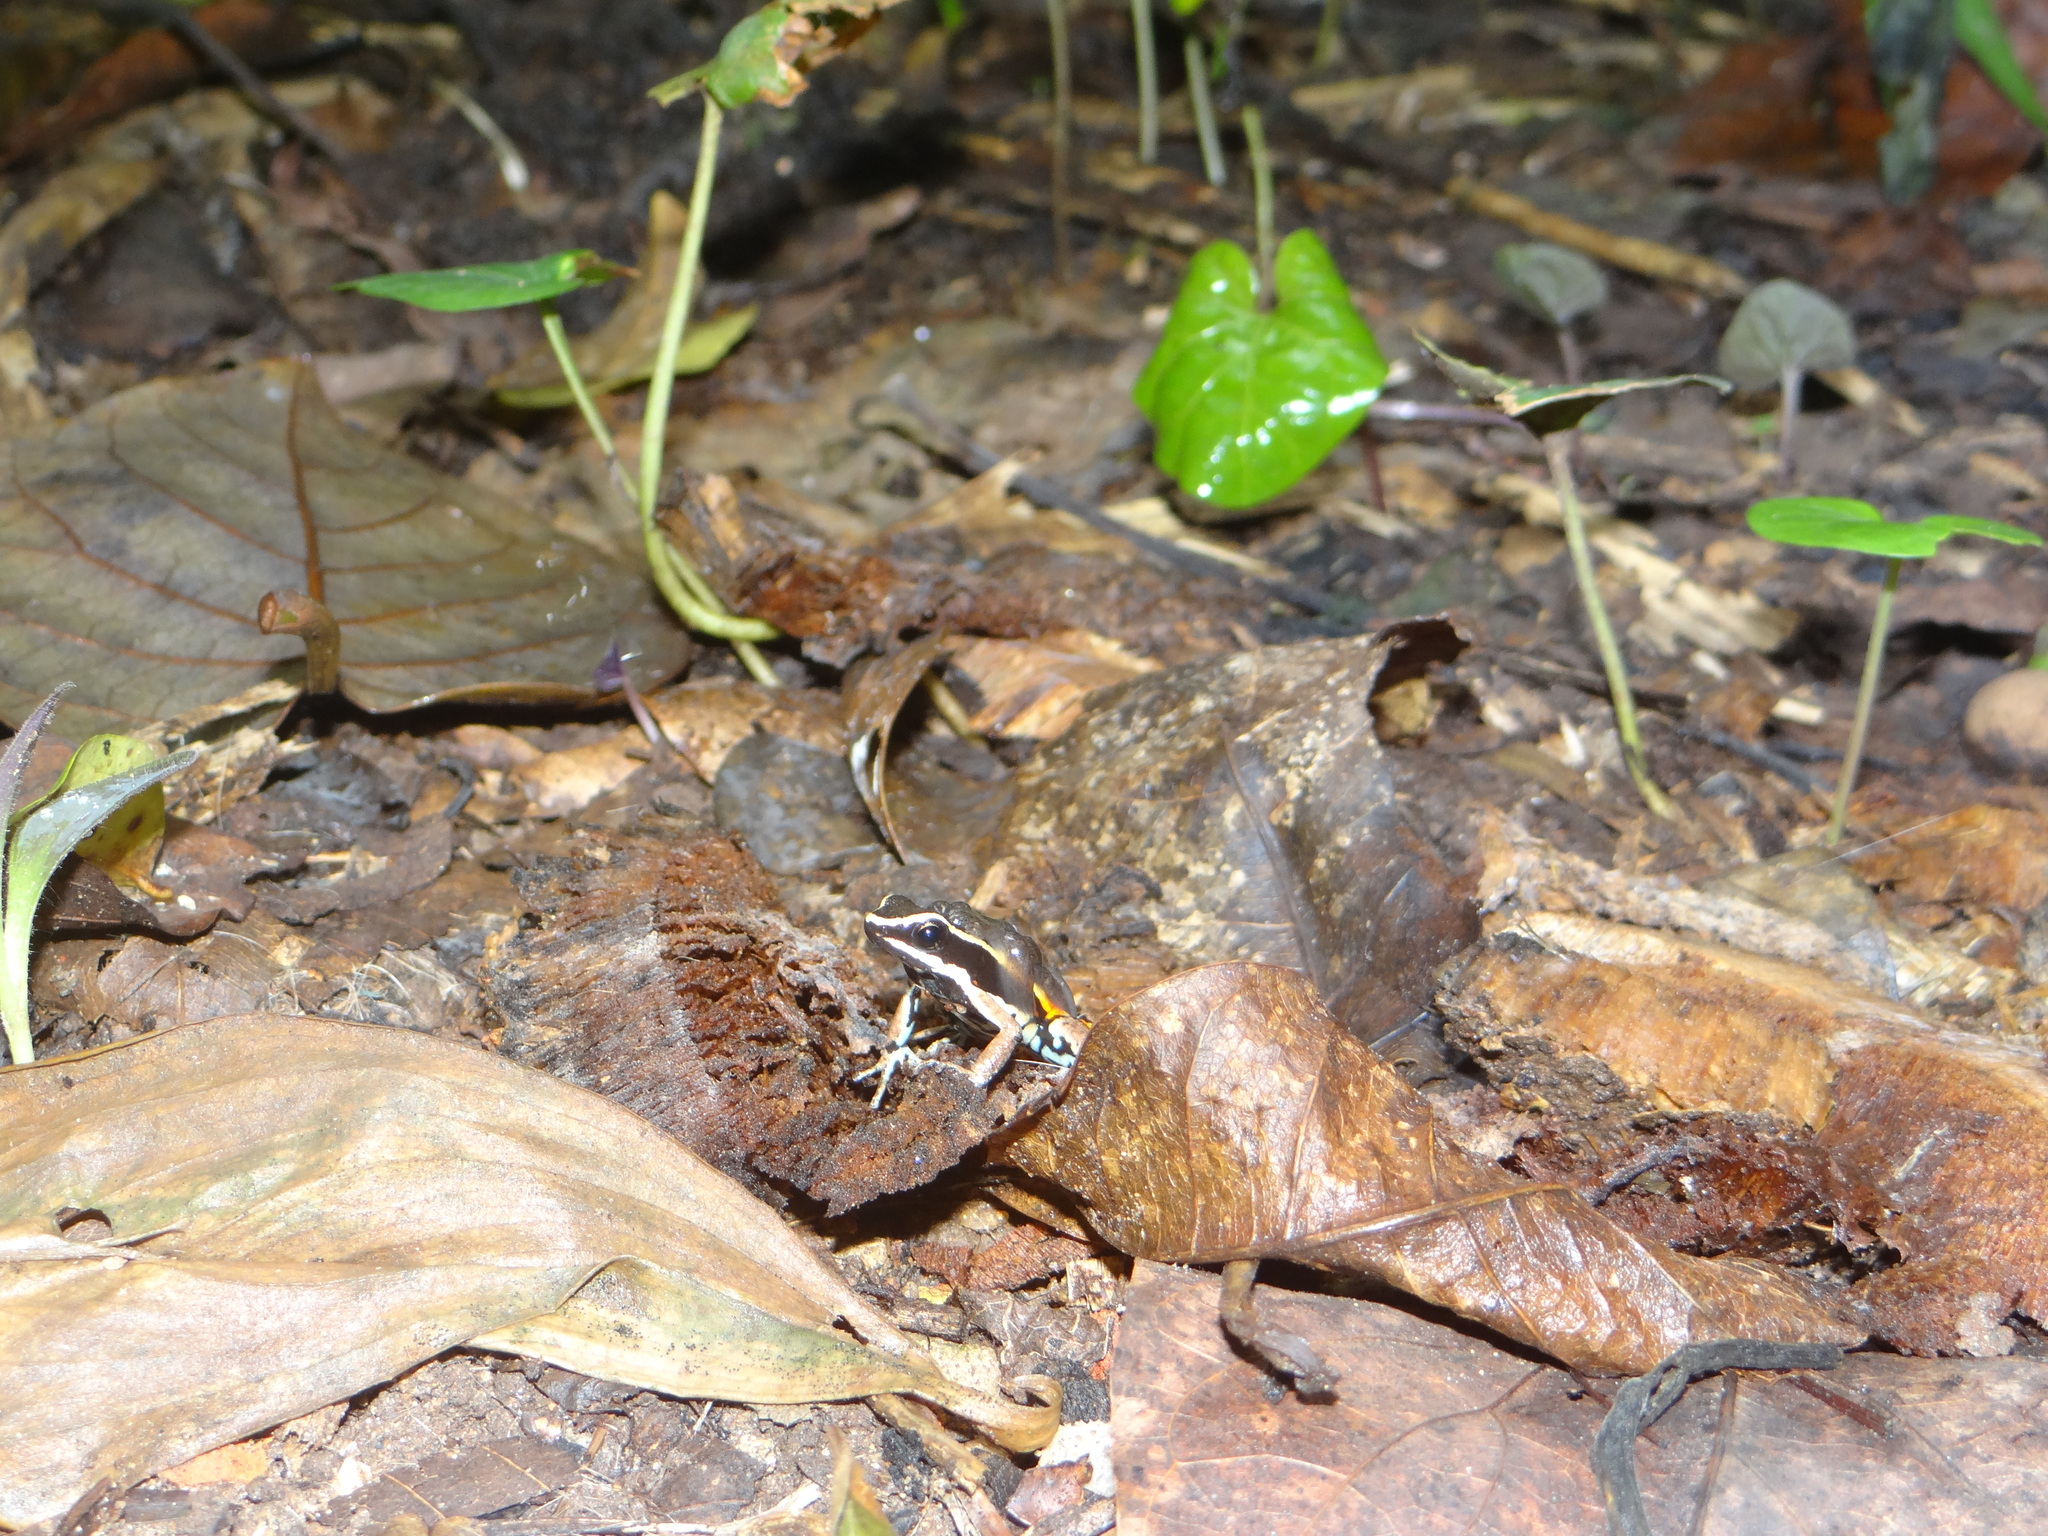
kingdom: Animalia
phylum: Chordata
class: Amphibia
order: Anura
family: Dendrobatidae
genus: Ameerega
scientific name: Ameerega picta
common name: Spot-legged poison frog
